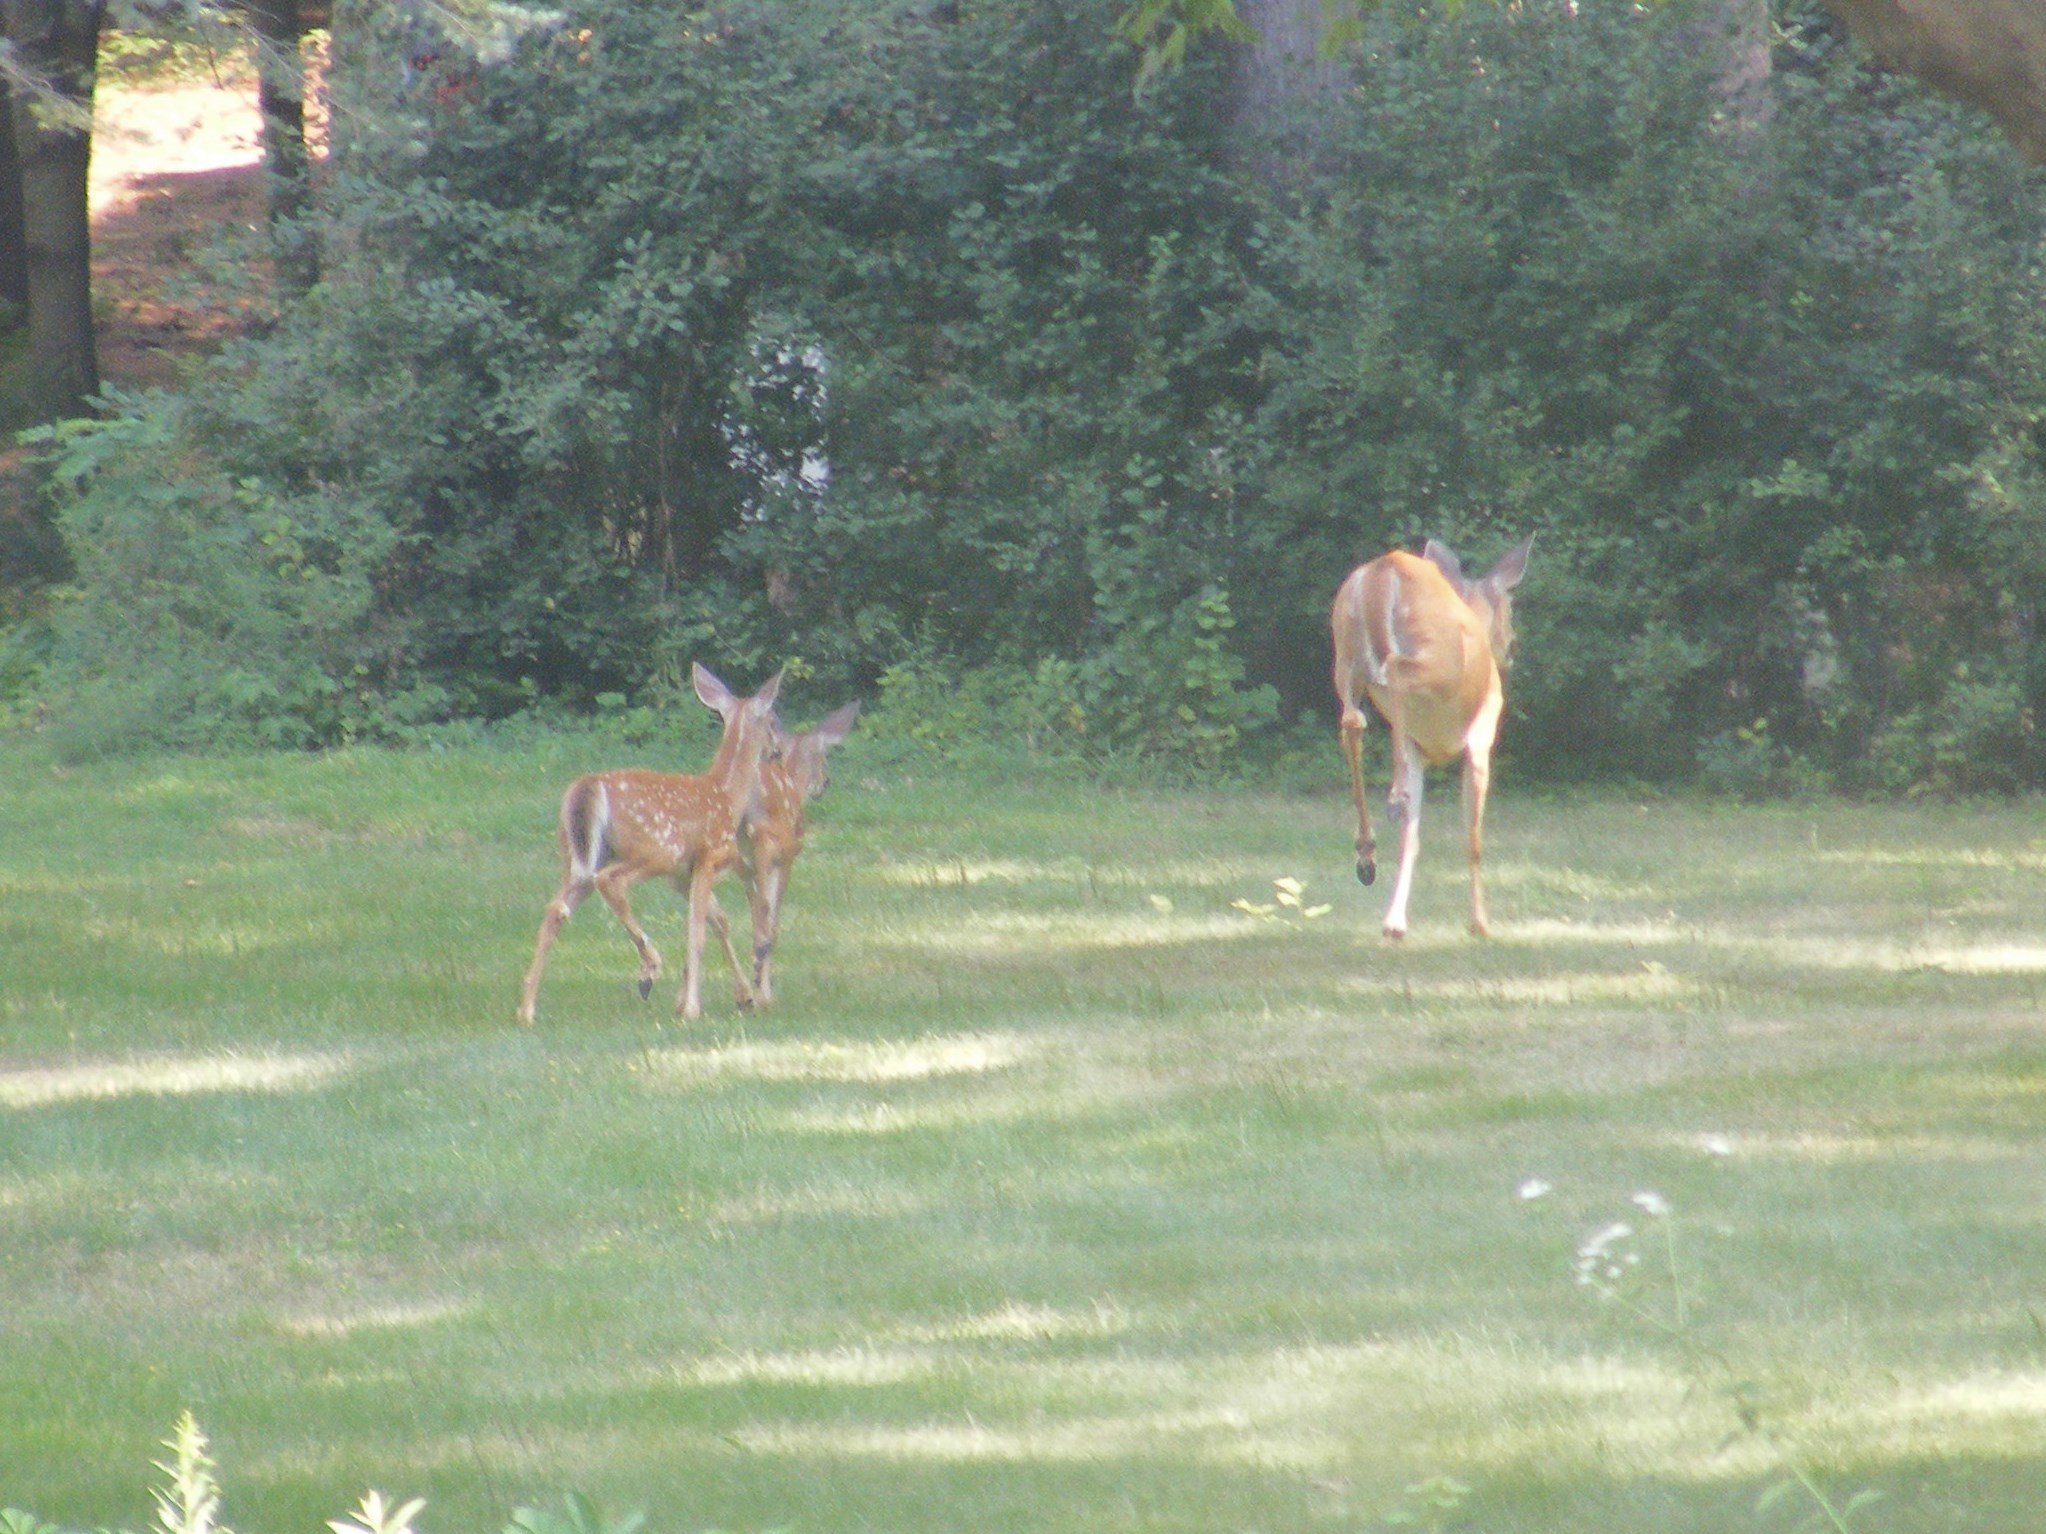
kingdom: Animalia
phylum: Chordata
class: Mammalia
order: Artiodactyla
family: Cervidae
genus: Odocoileus
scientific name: Odocoileus virginianus
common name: White-tailed deer
